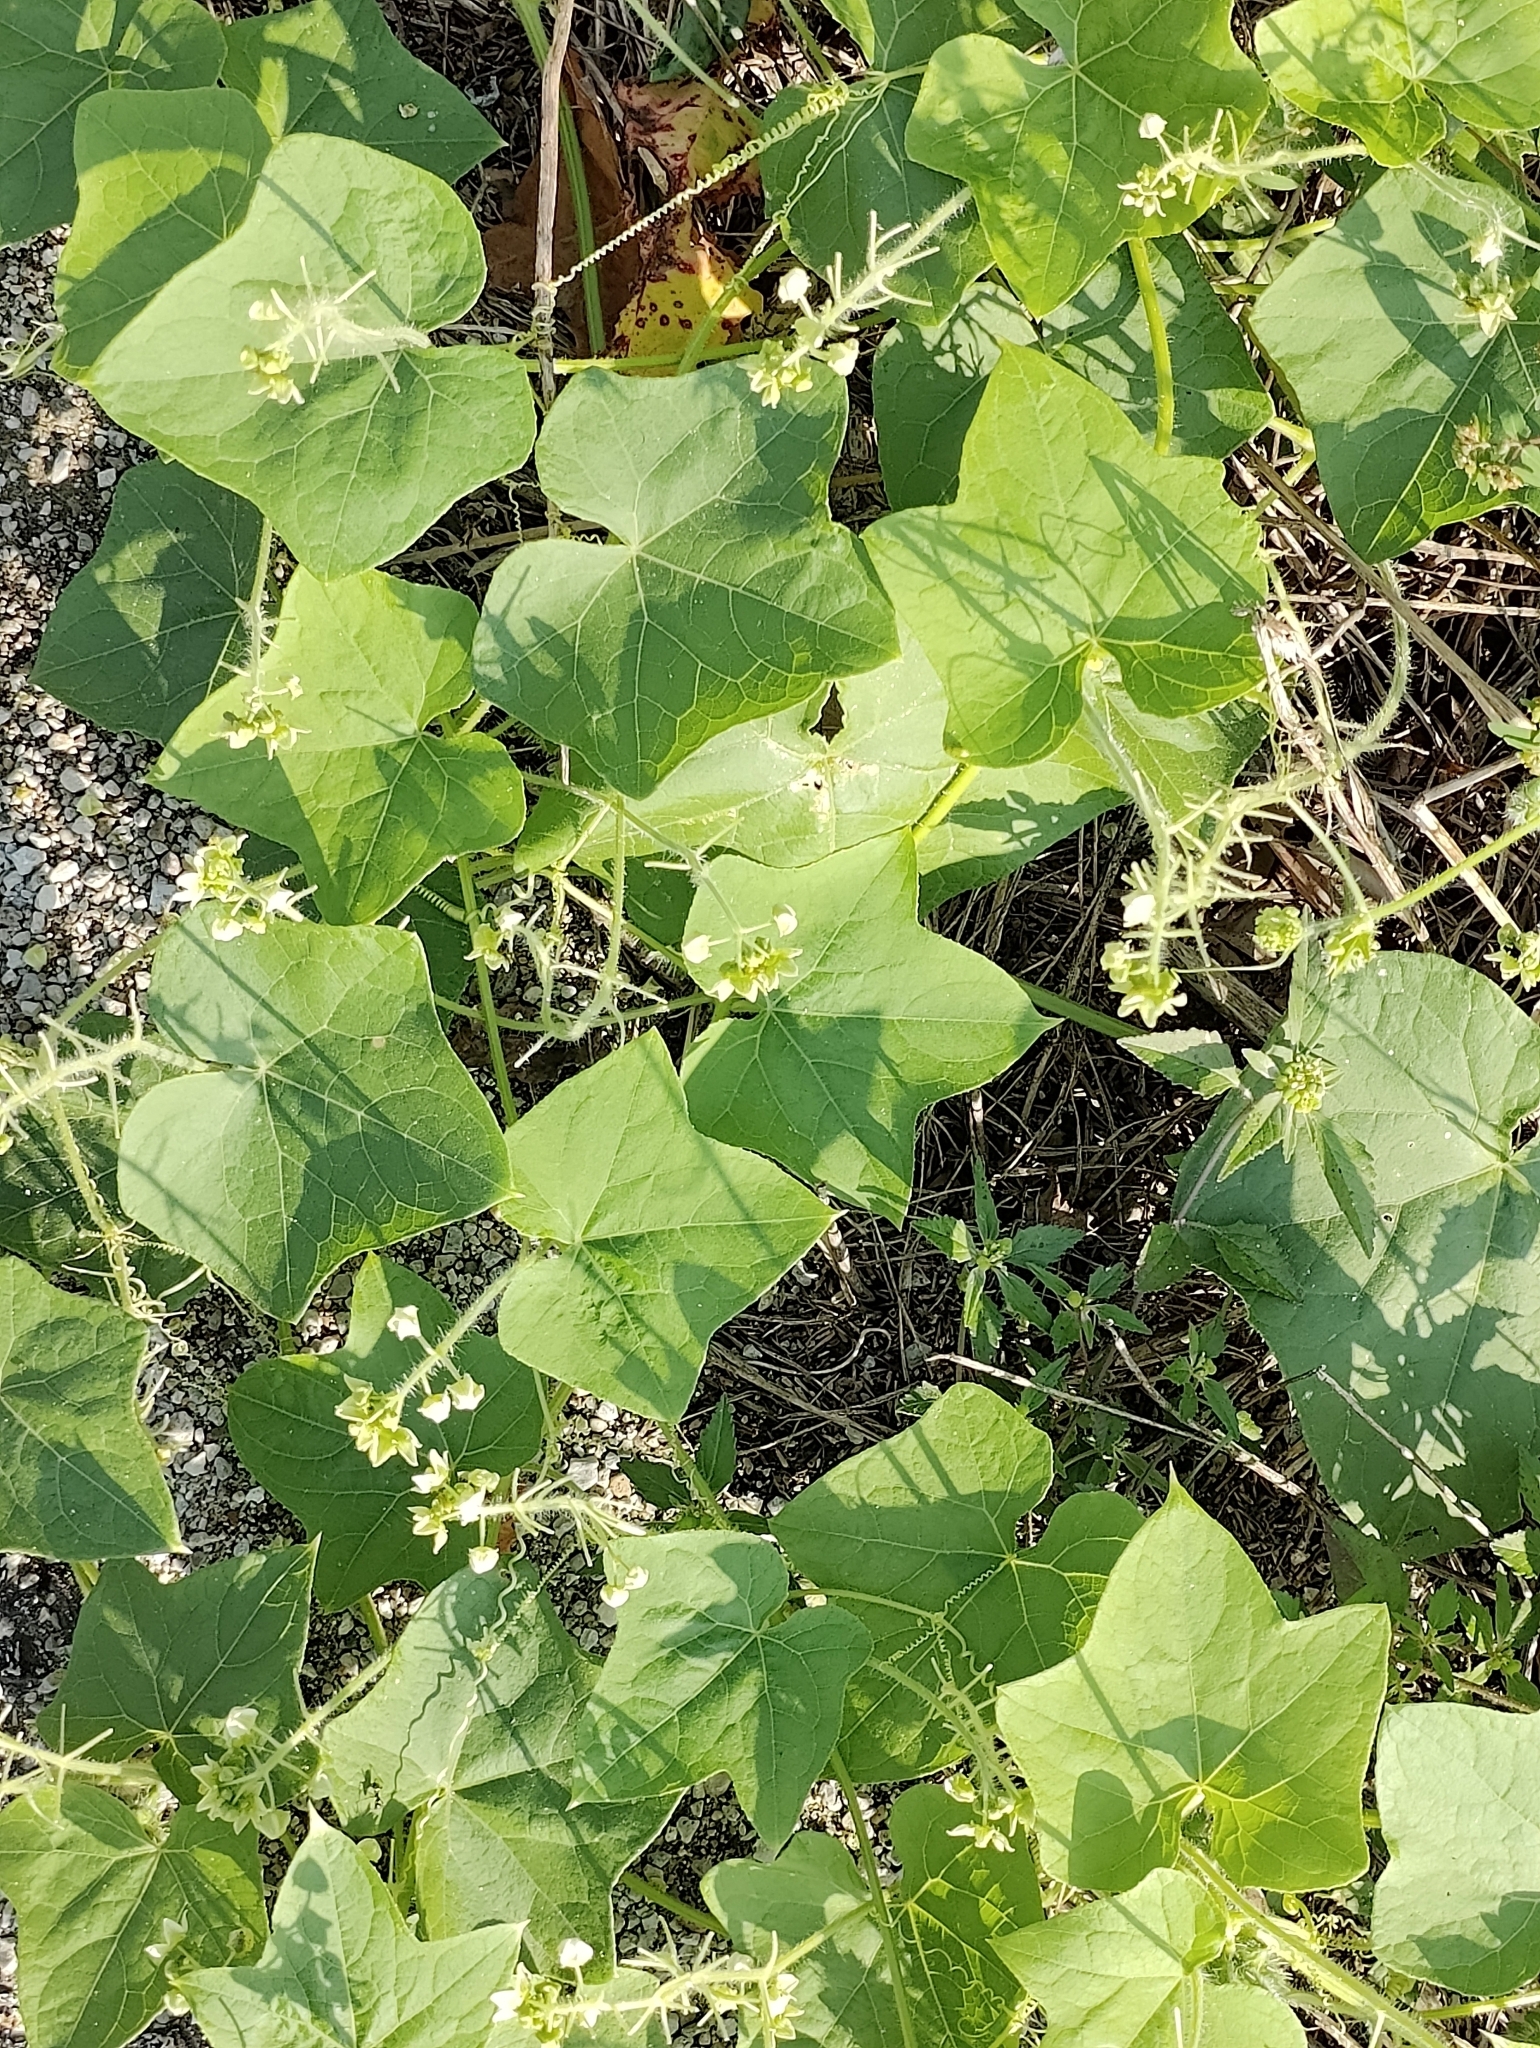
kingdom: Plantae
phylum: Tracheophyta
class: Magnoliopsida
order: Cucurbitales
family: Cucurbitaceae
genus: Sicyos
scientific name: Sicyos angulatus
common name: Angled burr cucumber
